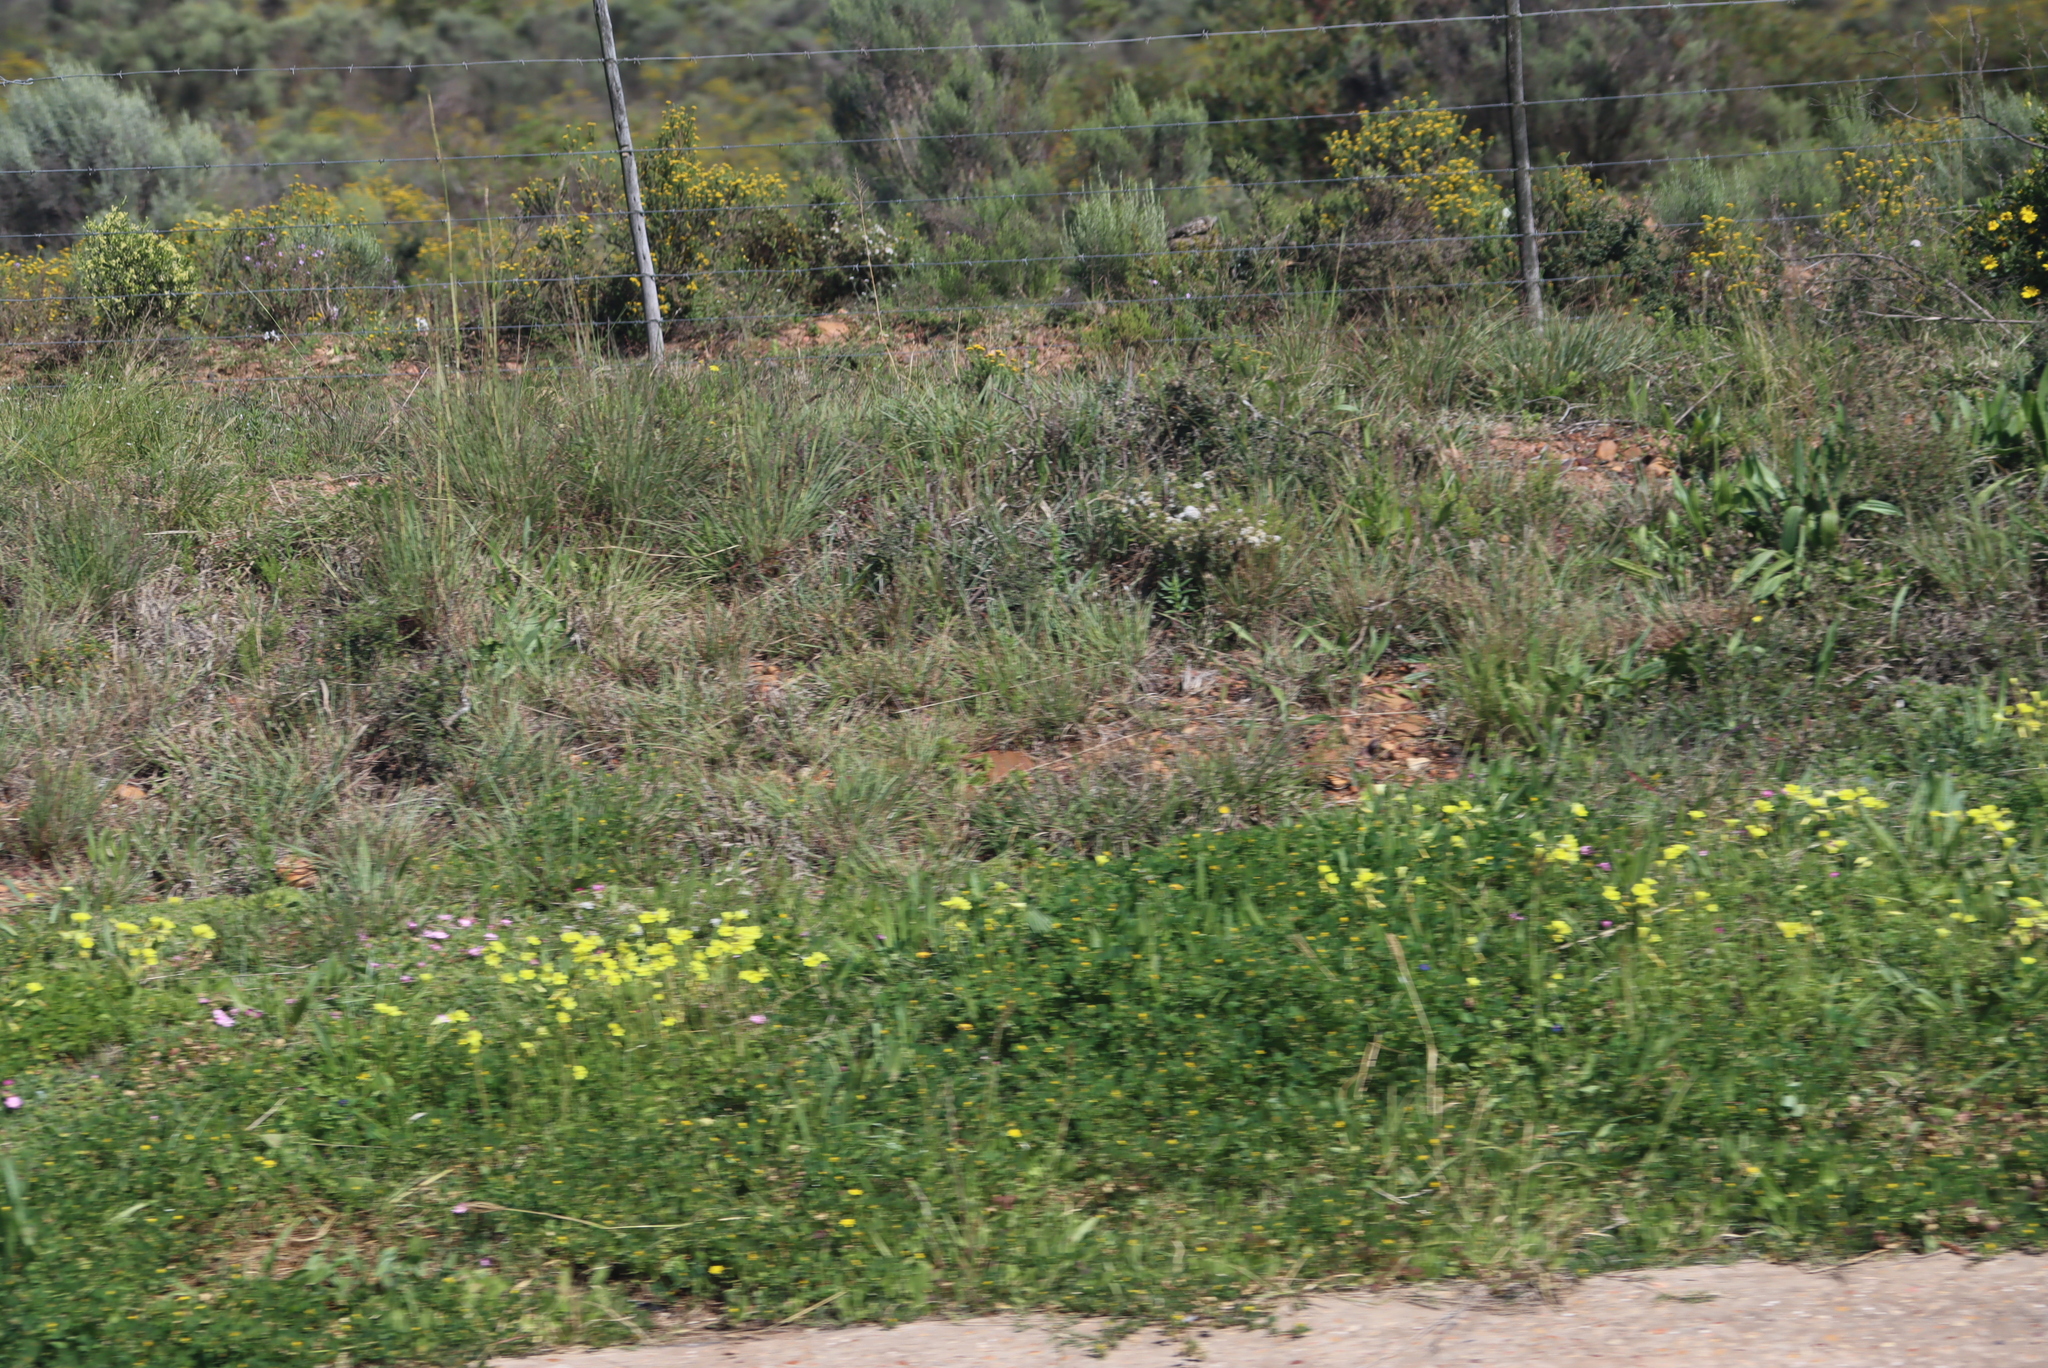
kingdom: Plantae
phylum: Tracheophyta
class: Magnoliopsida
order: Oxalidales
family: Oxalidaceae
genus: Oxalis
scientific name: Oxalis pes-caprae
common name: Bermuda-buttercup
